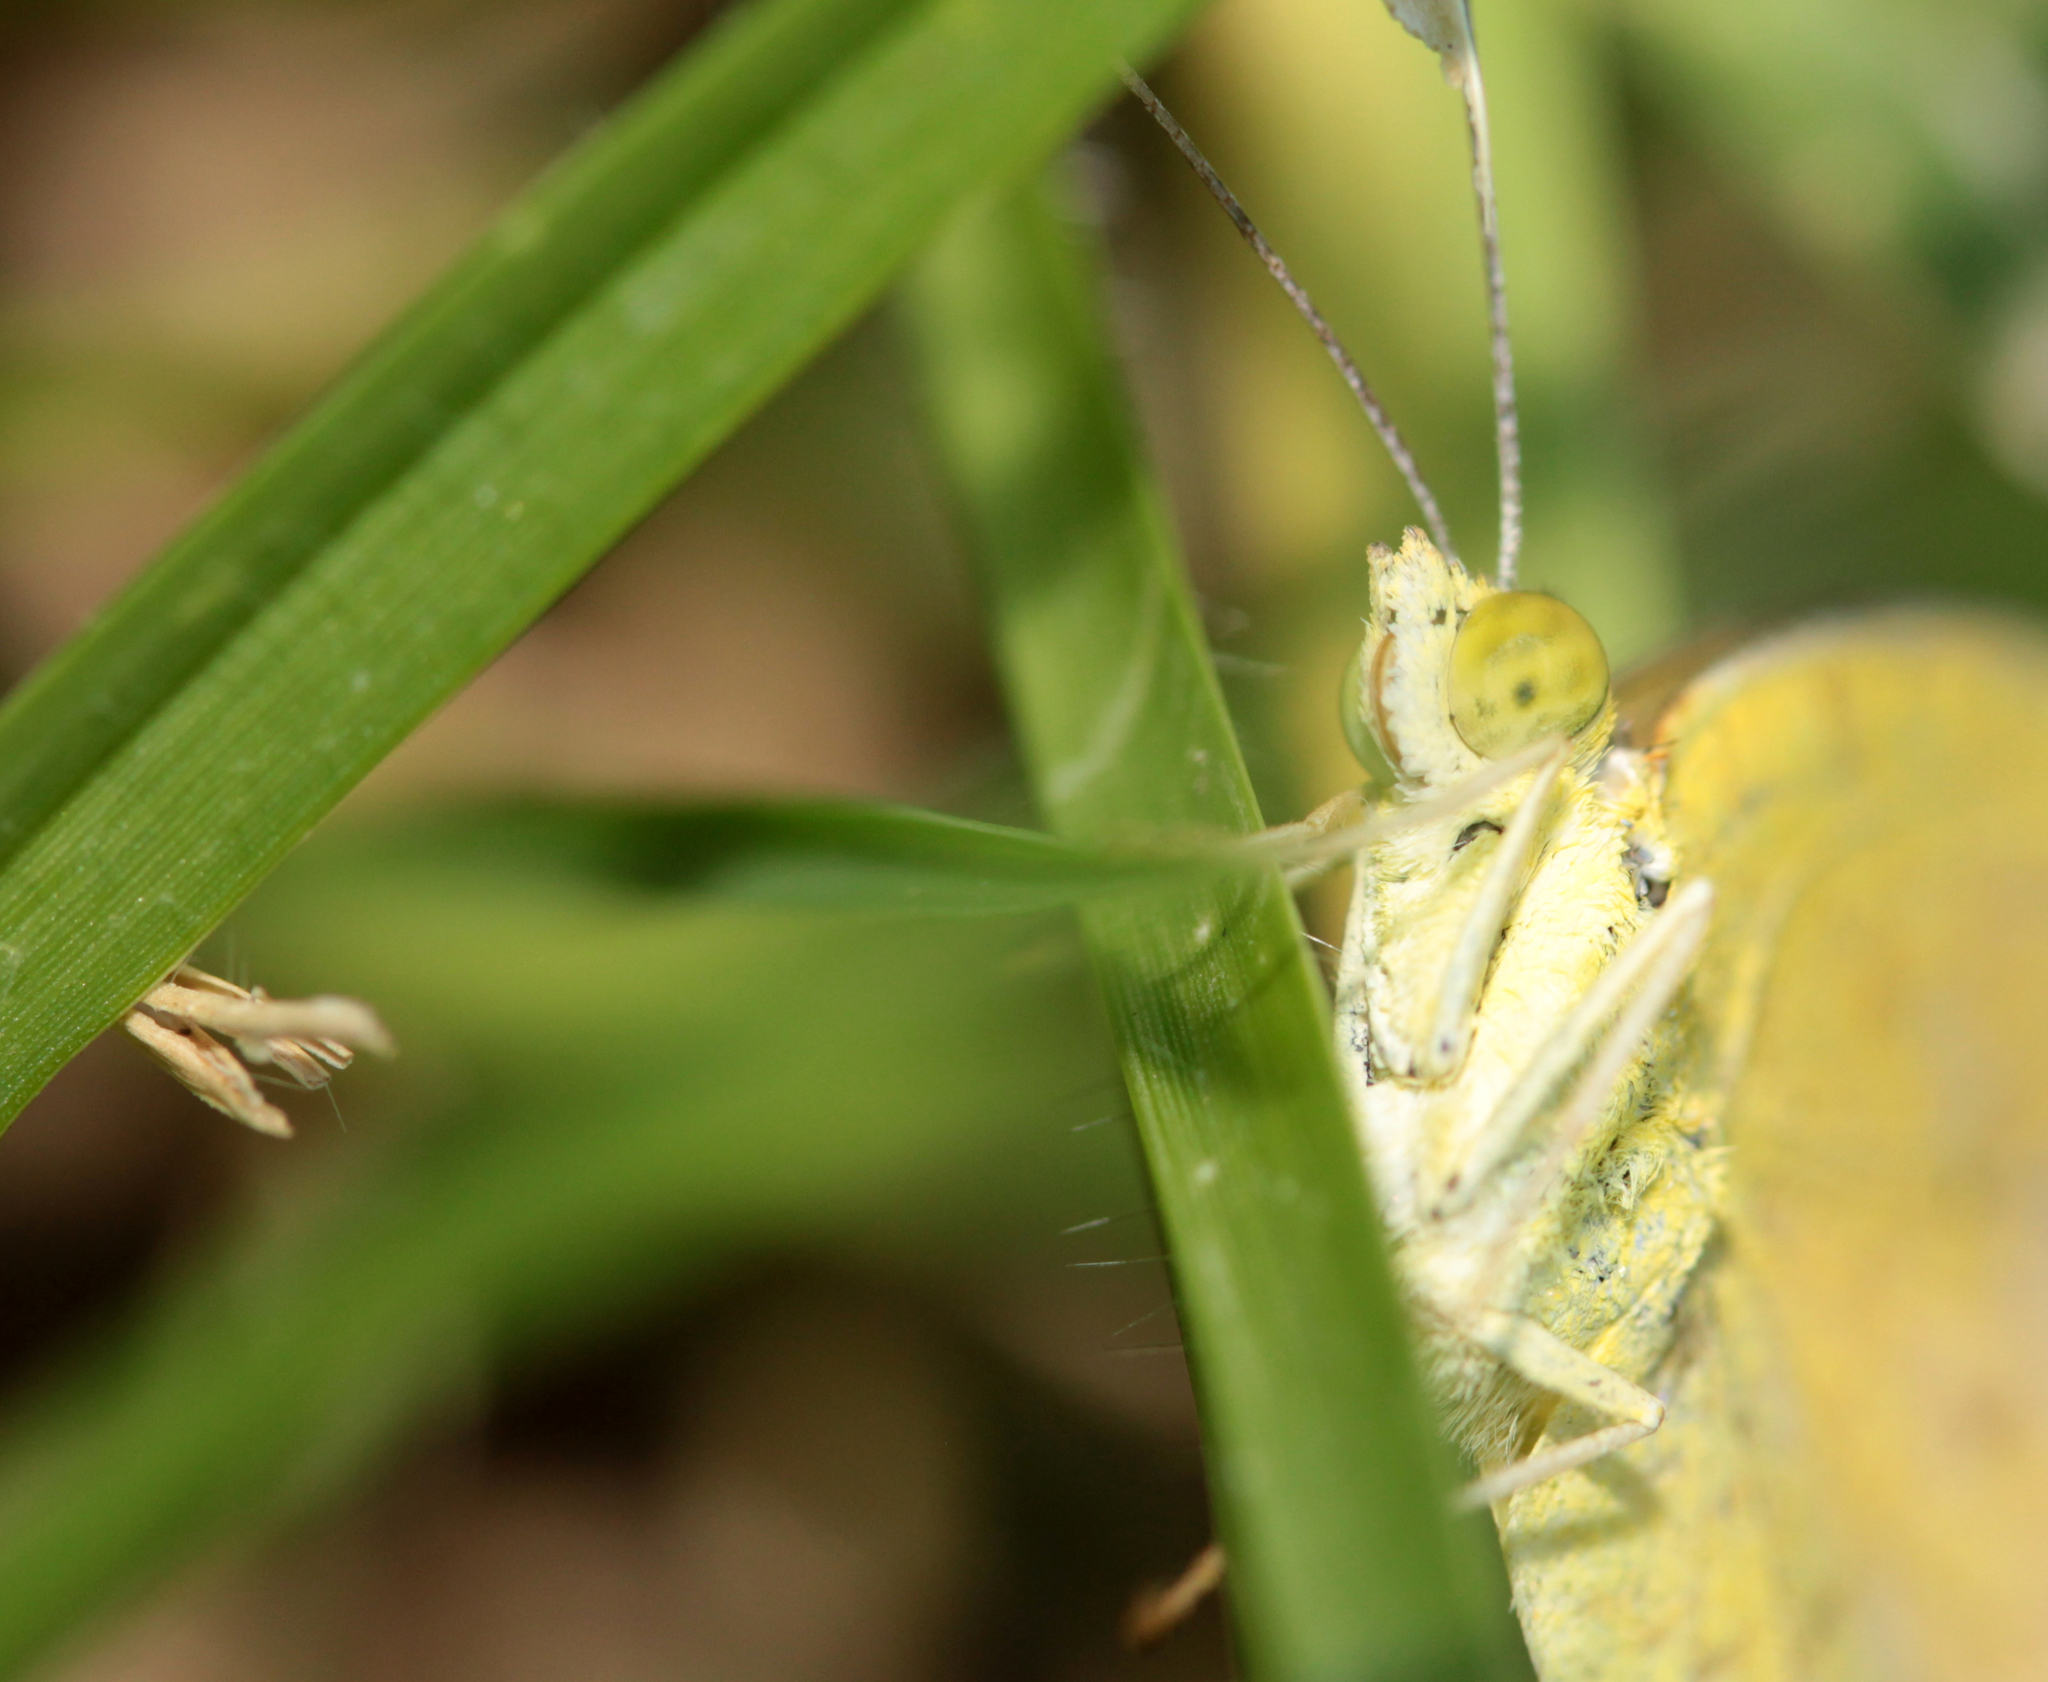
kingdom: Animalia
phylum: Arthropoda
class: Insecta
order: Lepidoptera
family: Pieridae
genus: Abaeis
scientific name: Abaeis nicippe
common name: Sleepy orange
